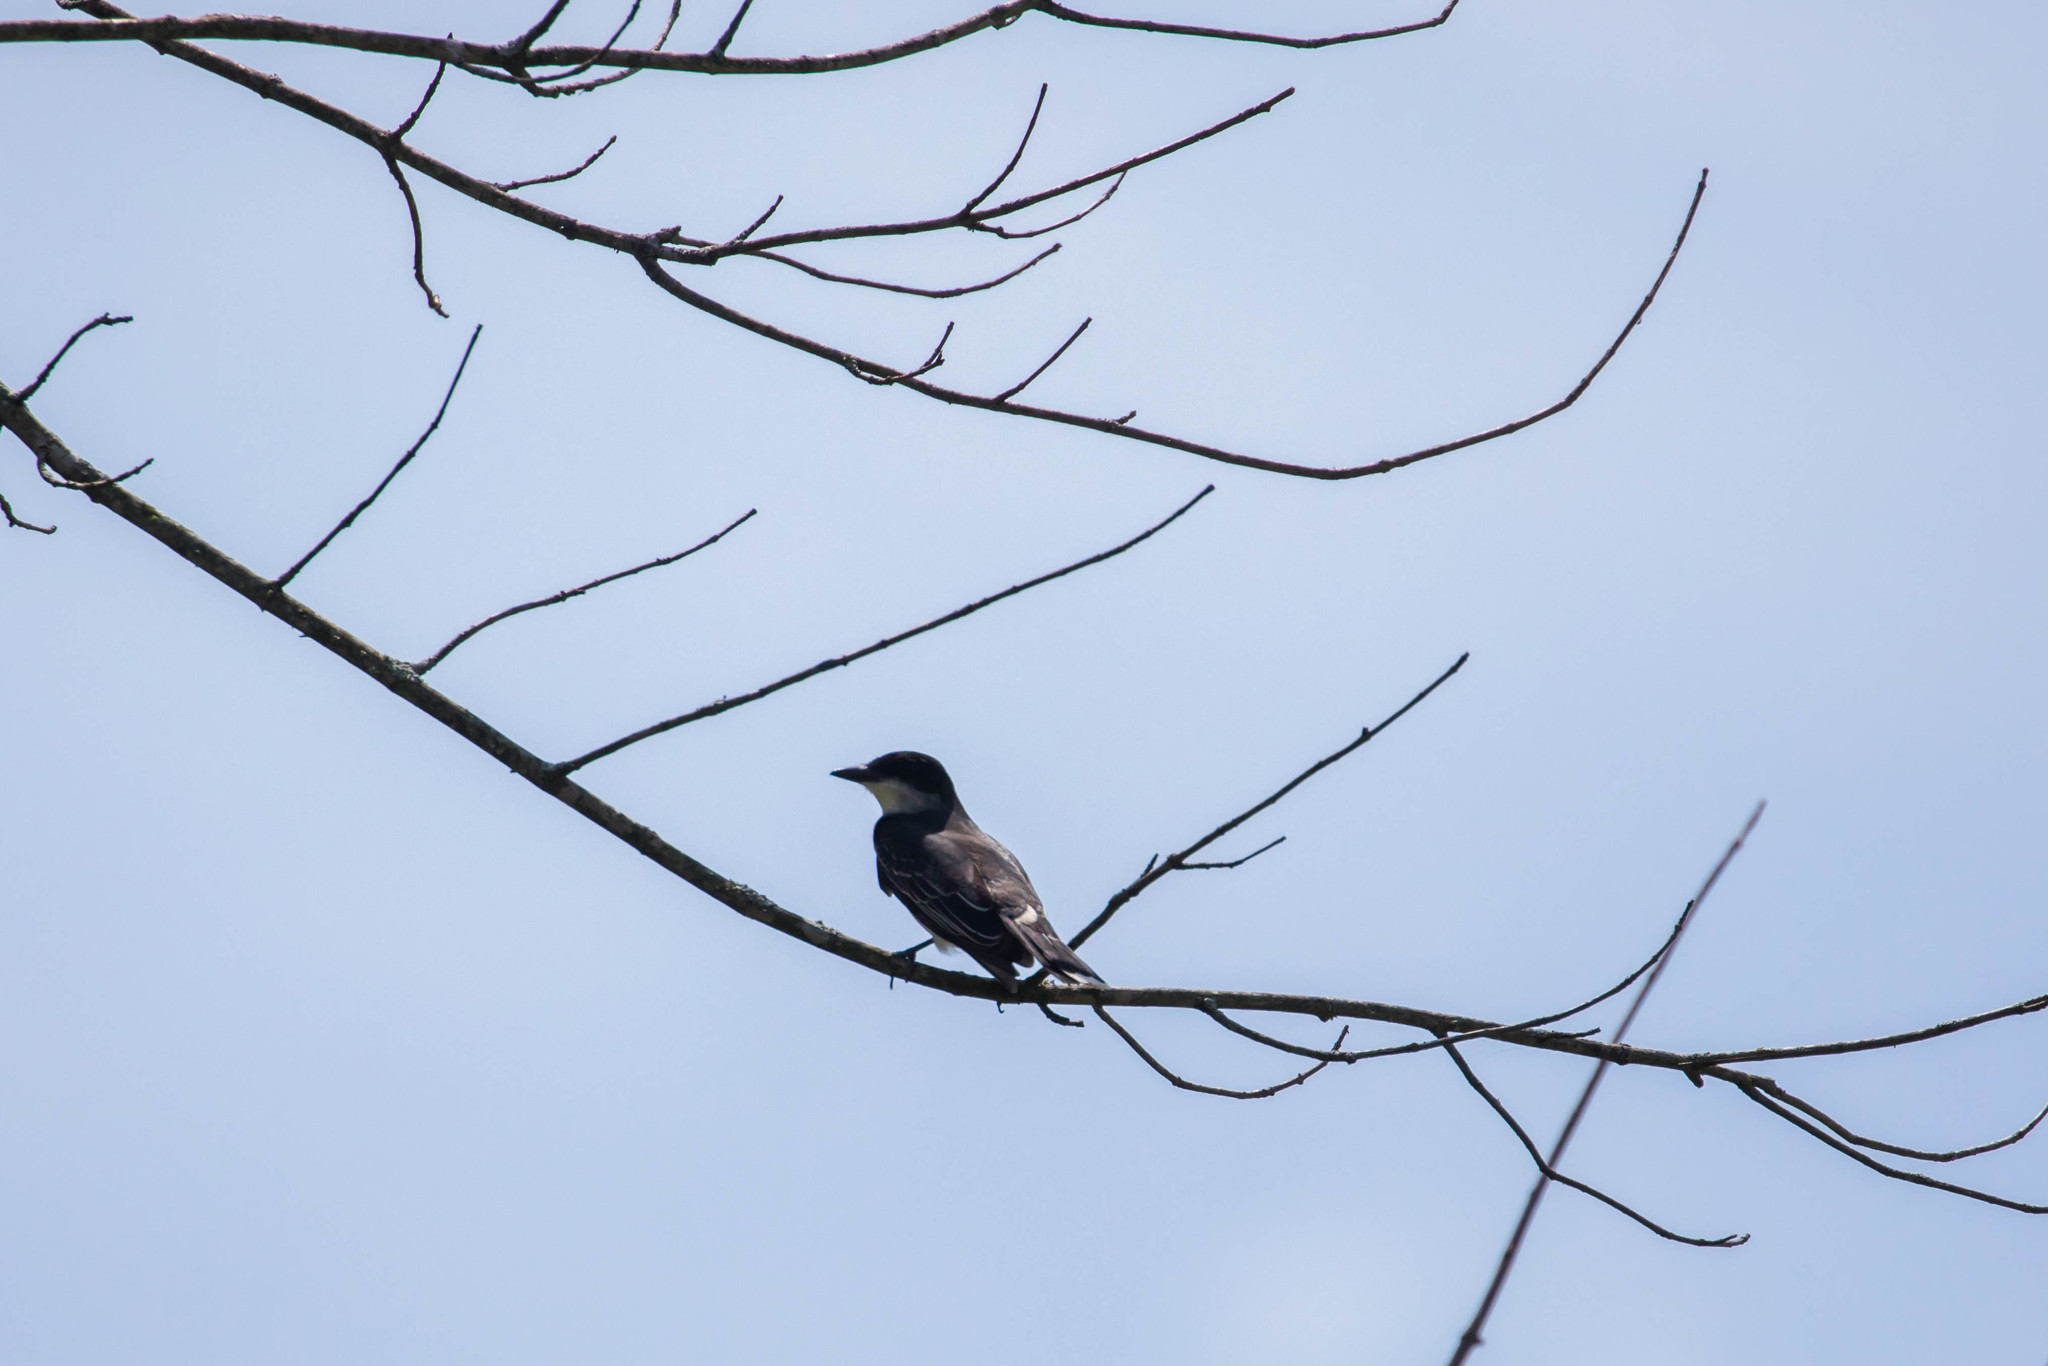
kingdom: Animalia
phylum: Chordata
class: Aves
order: Passeriformes
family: Tyrannidae
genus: Tyrannus
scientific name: Tyrannus tyrannus
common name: Eastern kingbird
